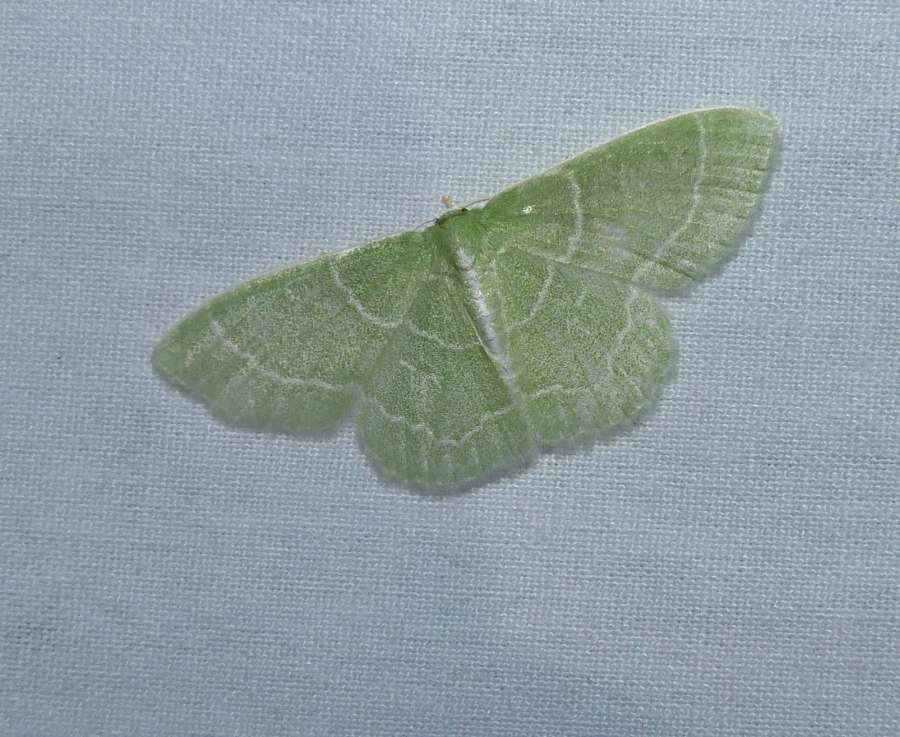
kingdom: Animalia
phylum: Arthropoda
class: Insecta
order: Lepidoptera
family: Geometridae
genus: Synchlora
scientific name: Synchlora aerata
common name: Wavy-lined emerald
